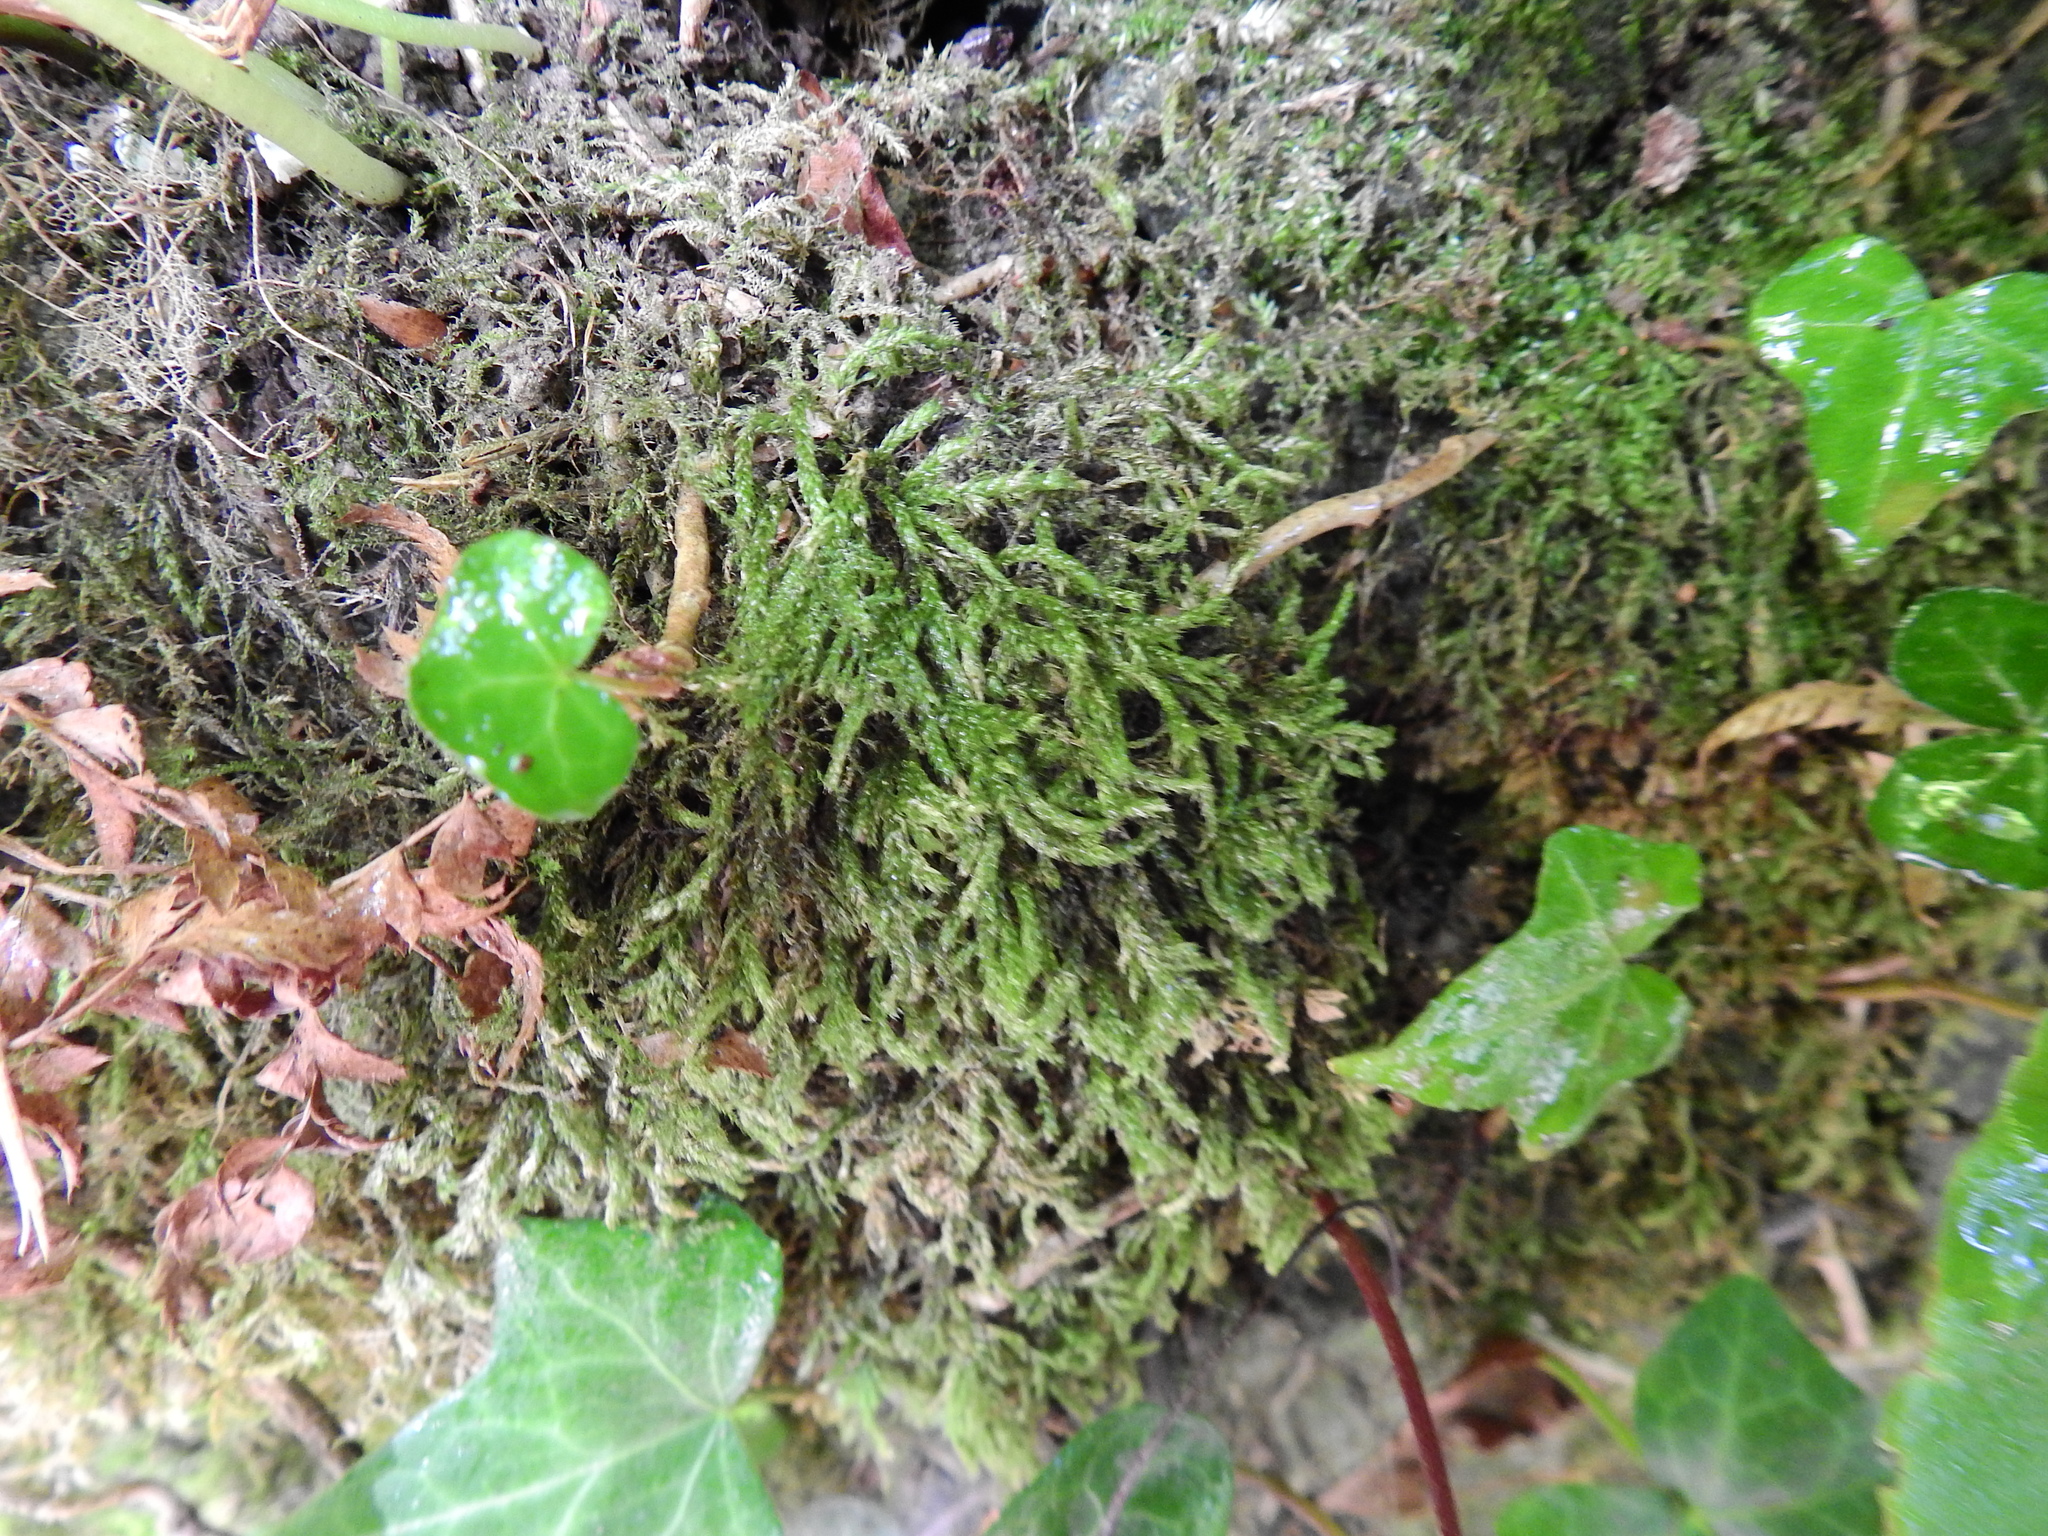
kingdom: Plantae
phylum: Bryophyta
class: Bryopsida
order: Hypnales
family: Hypnaceae
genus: Hypnum
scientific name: Hypnum cupressiforme
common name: Cypress-leaved plait-moss
